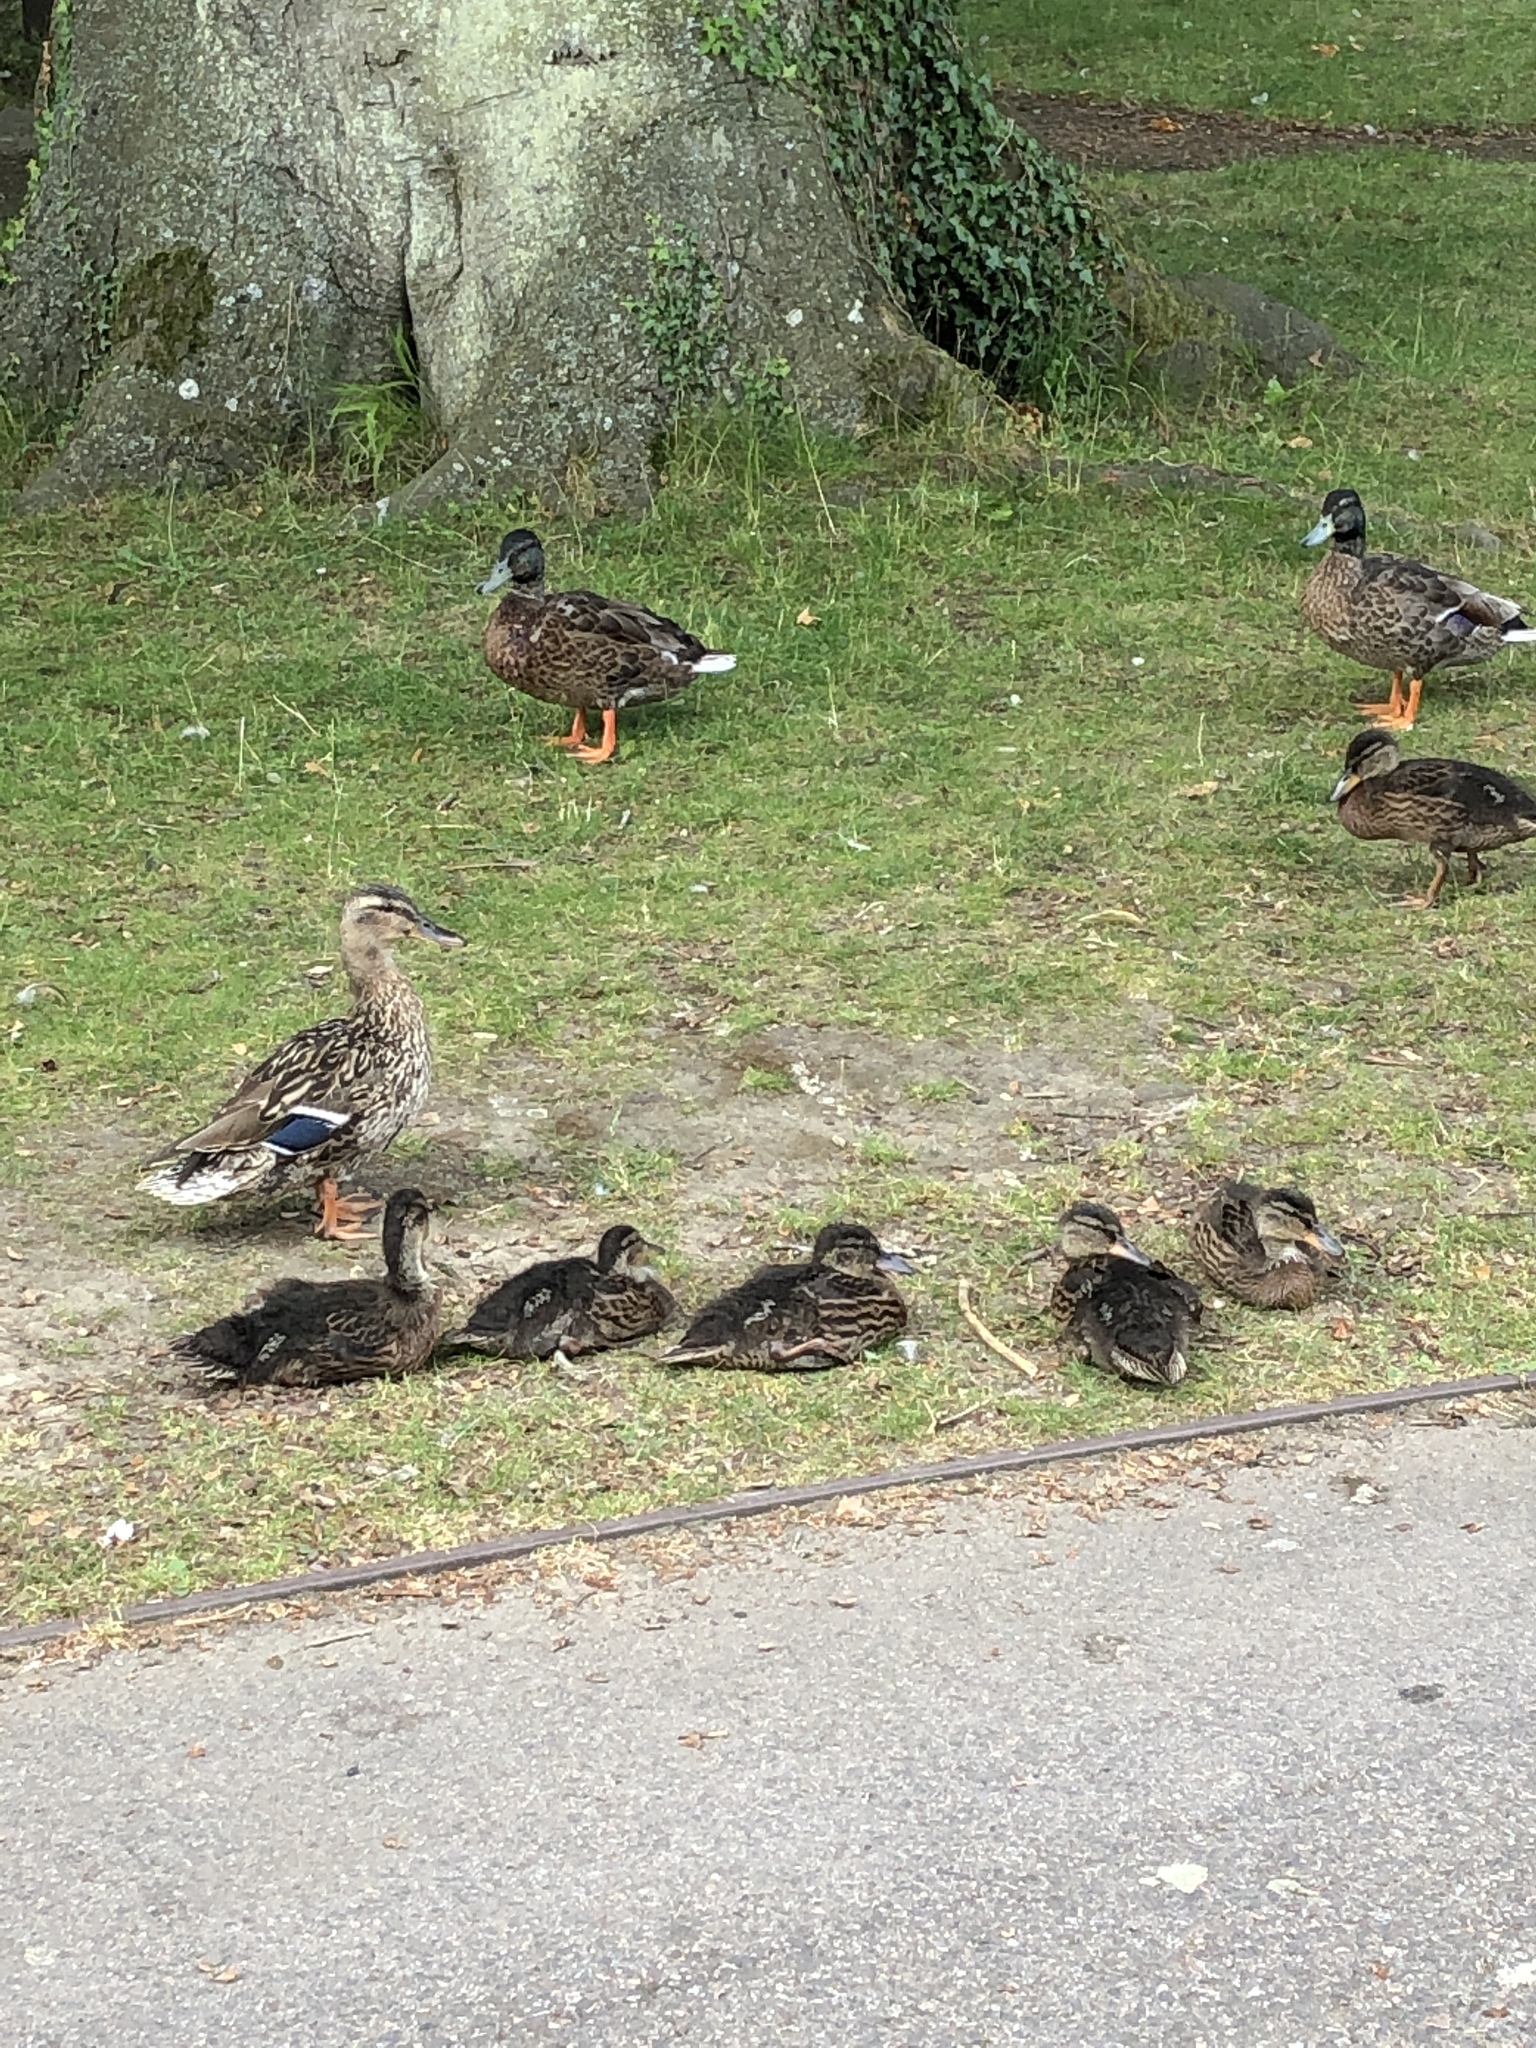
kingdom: Animalia
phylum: Chordata
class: Aves
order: Anseriformes
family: Anatidae
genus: Anas
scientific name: Anas platyrhynchos
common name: Mallard
